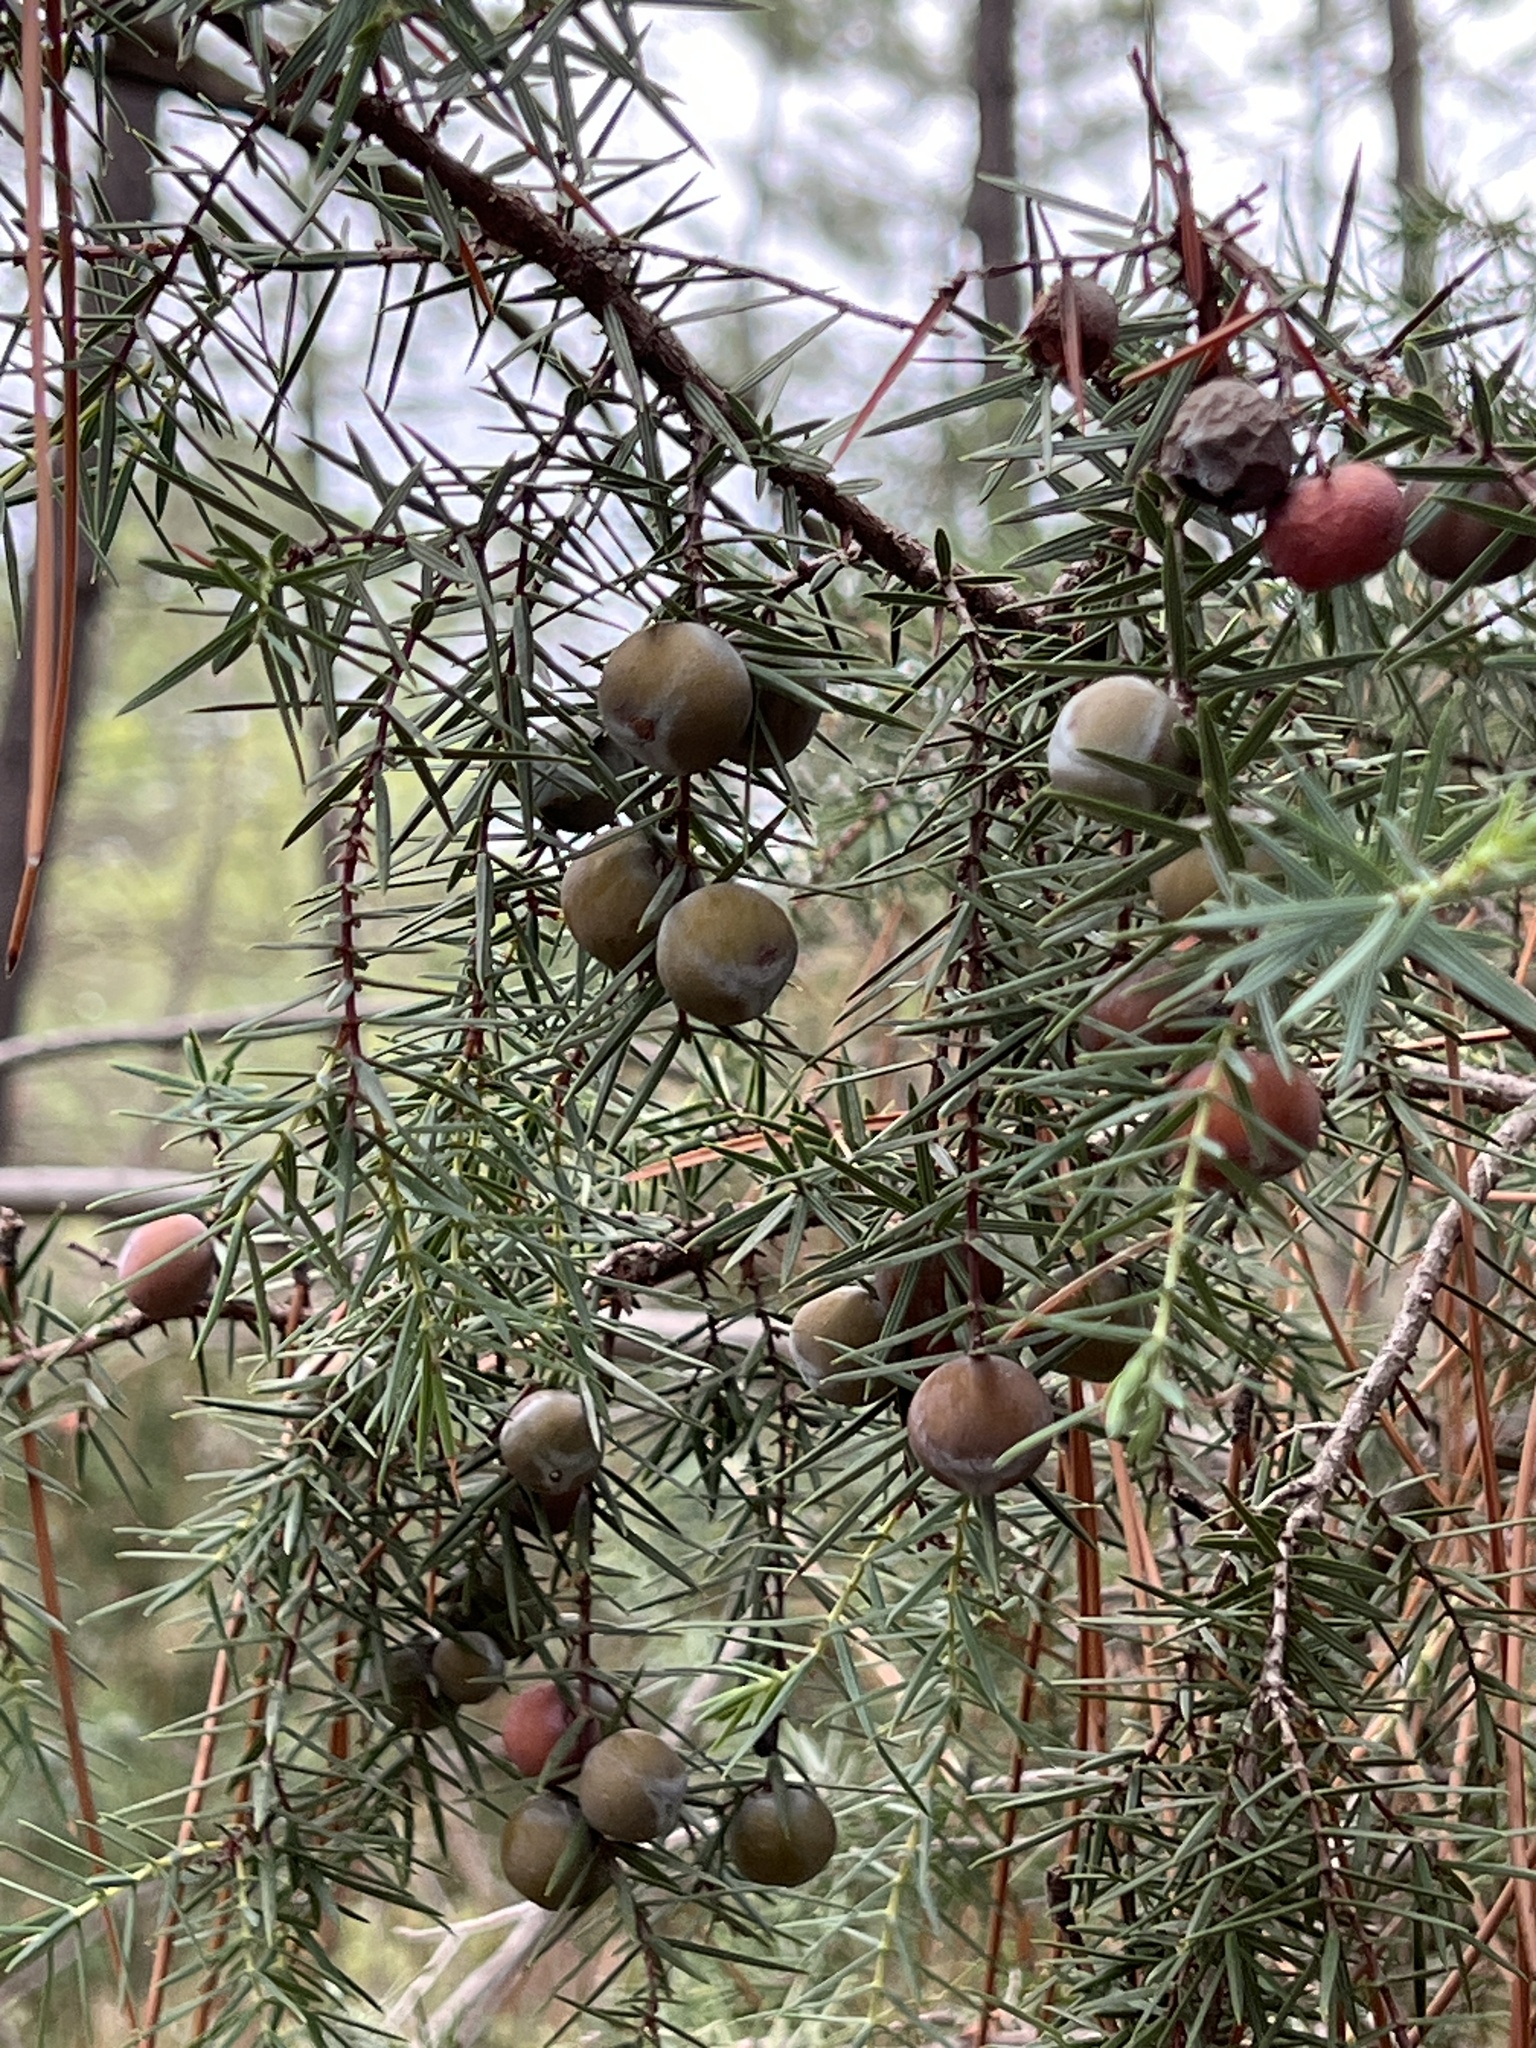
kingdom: Plantae
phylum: Tracheophyta
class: Pinopsida
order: Pinales
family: Cupressaceae
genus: Juniperus
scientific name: Juniperus oxycedrus
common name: Prickly juniper
